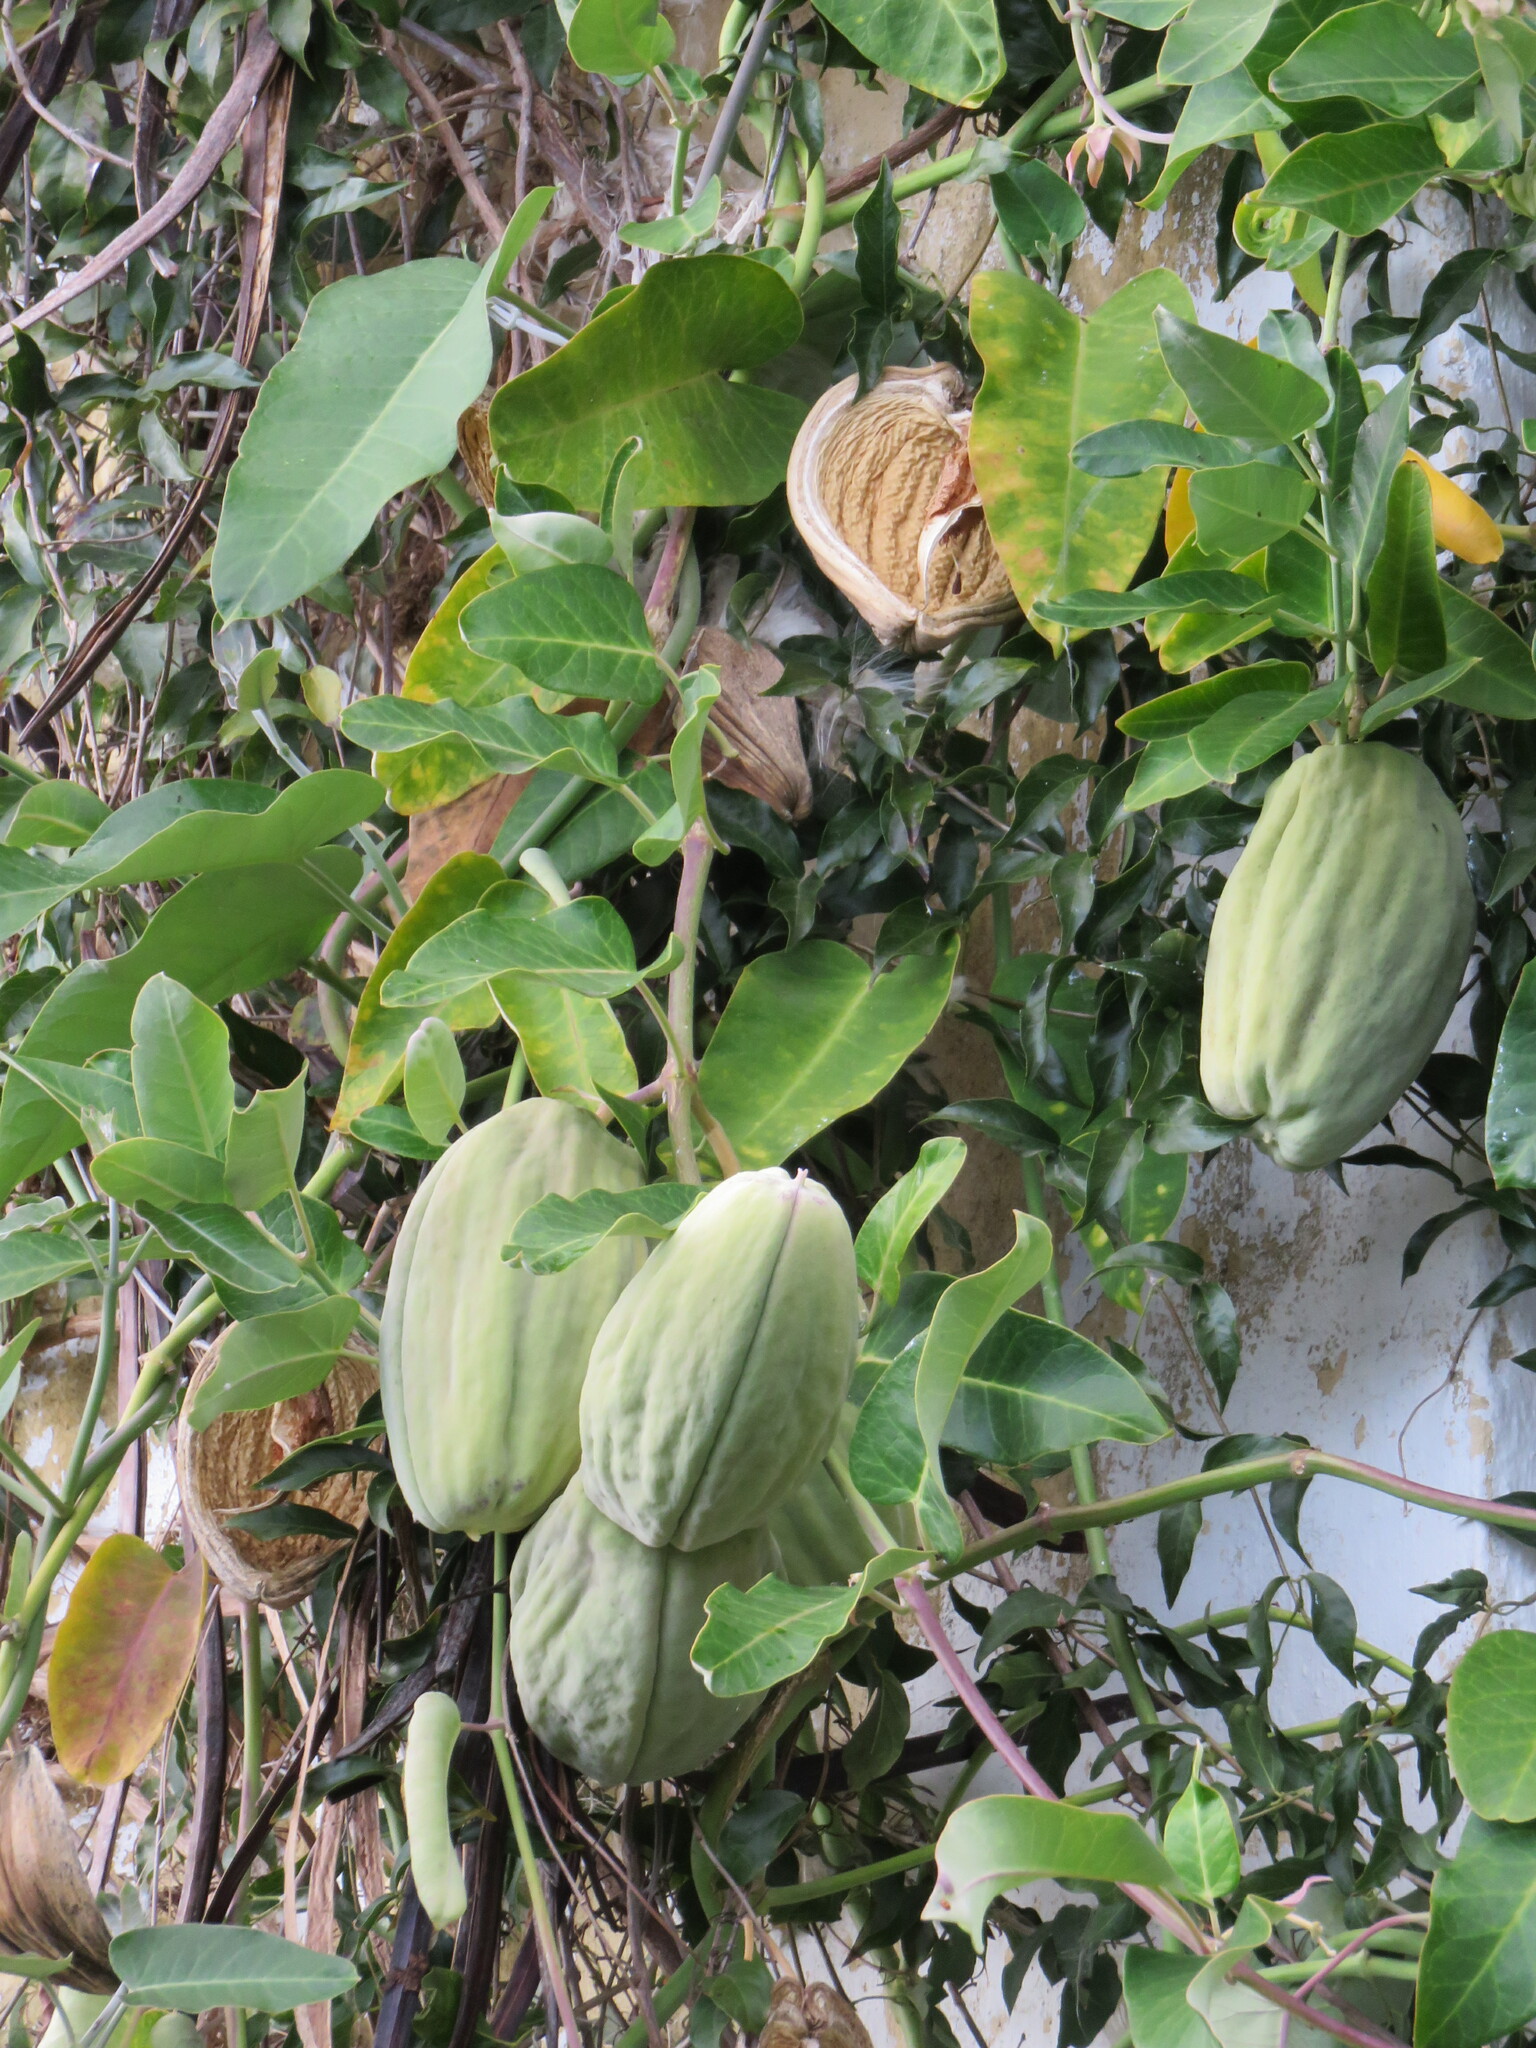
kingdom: Plantae
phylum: Tracheophyta
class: Magnoliopsida
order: Gentianales
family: Apocynaceae
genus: Araujia
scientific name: Araujia sericifera
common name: White bladderflower
